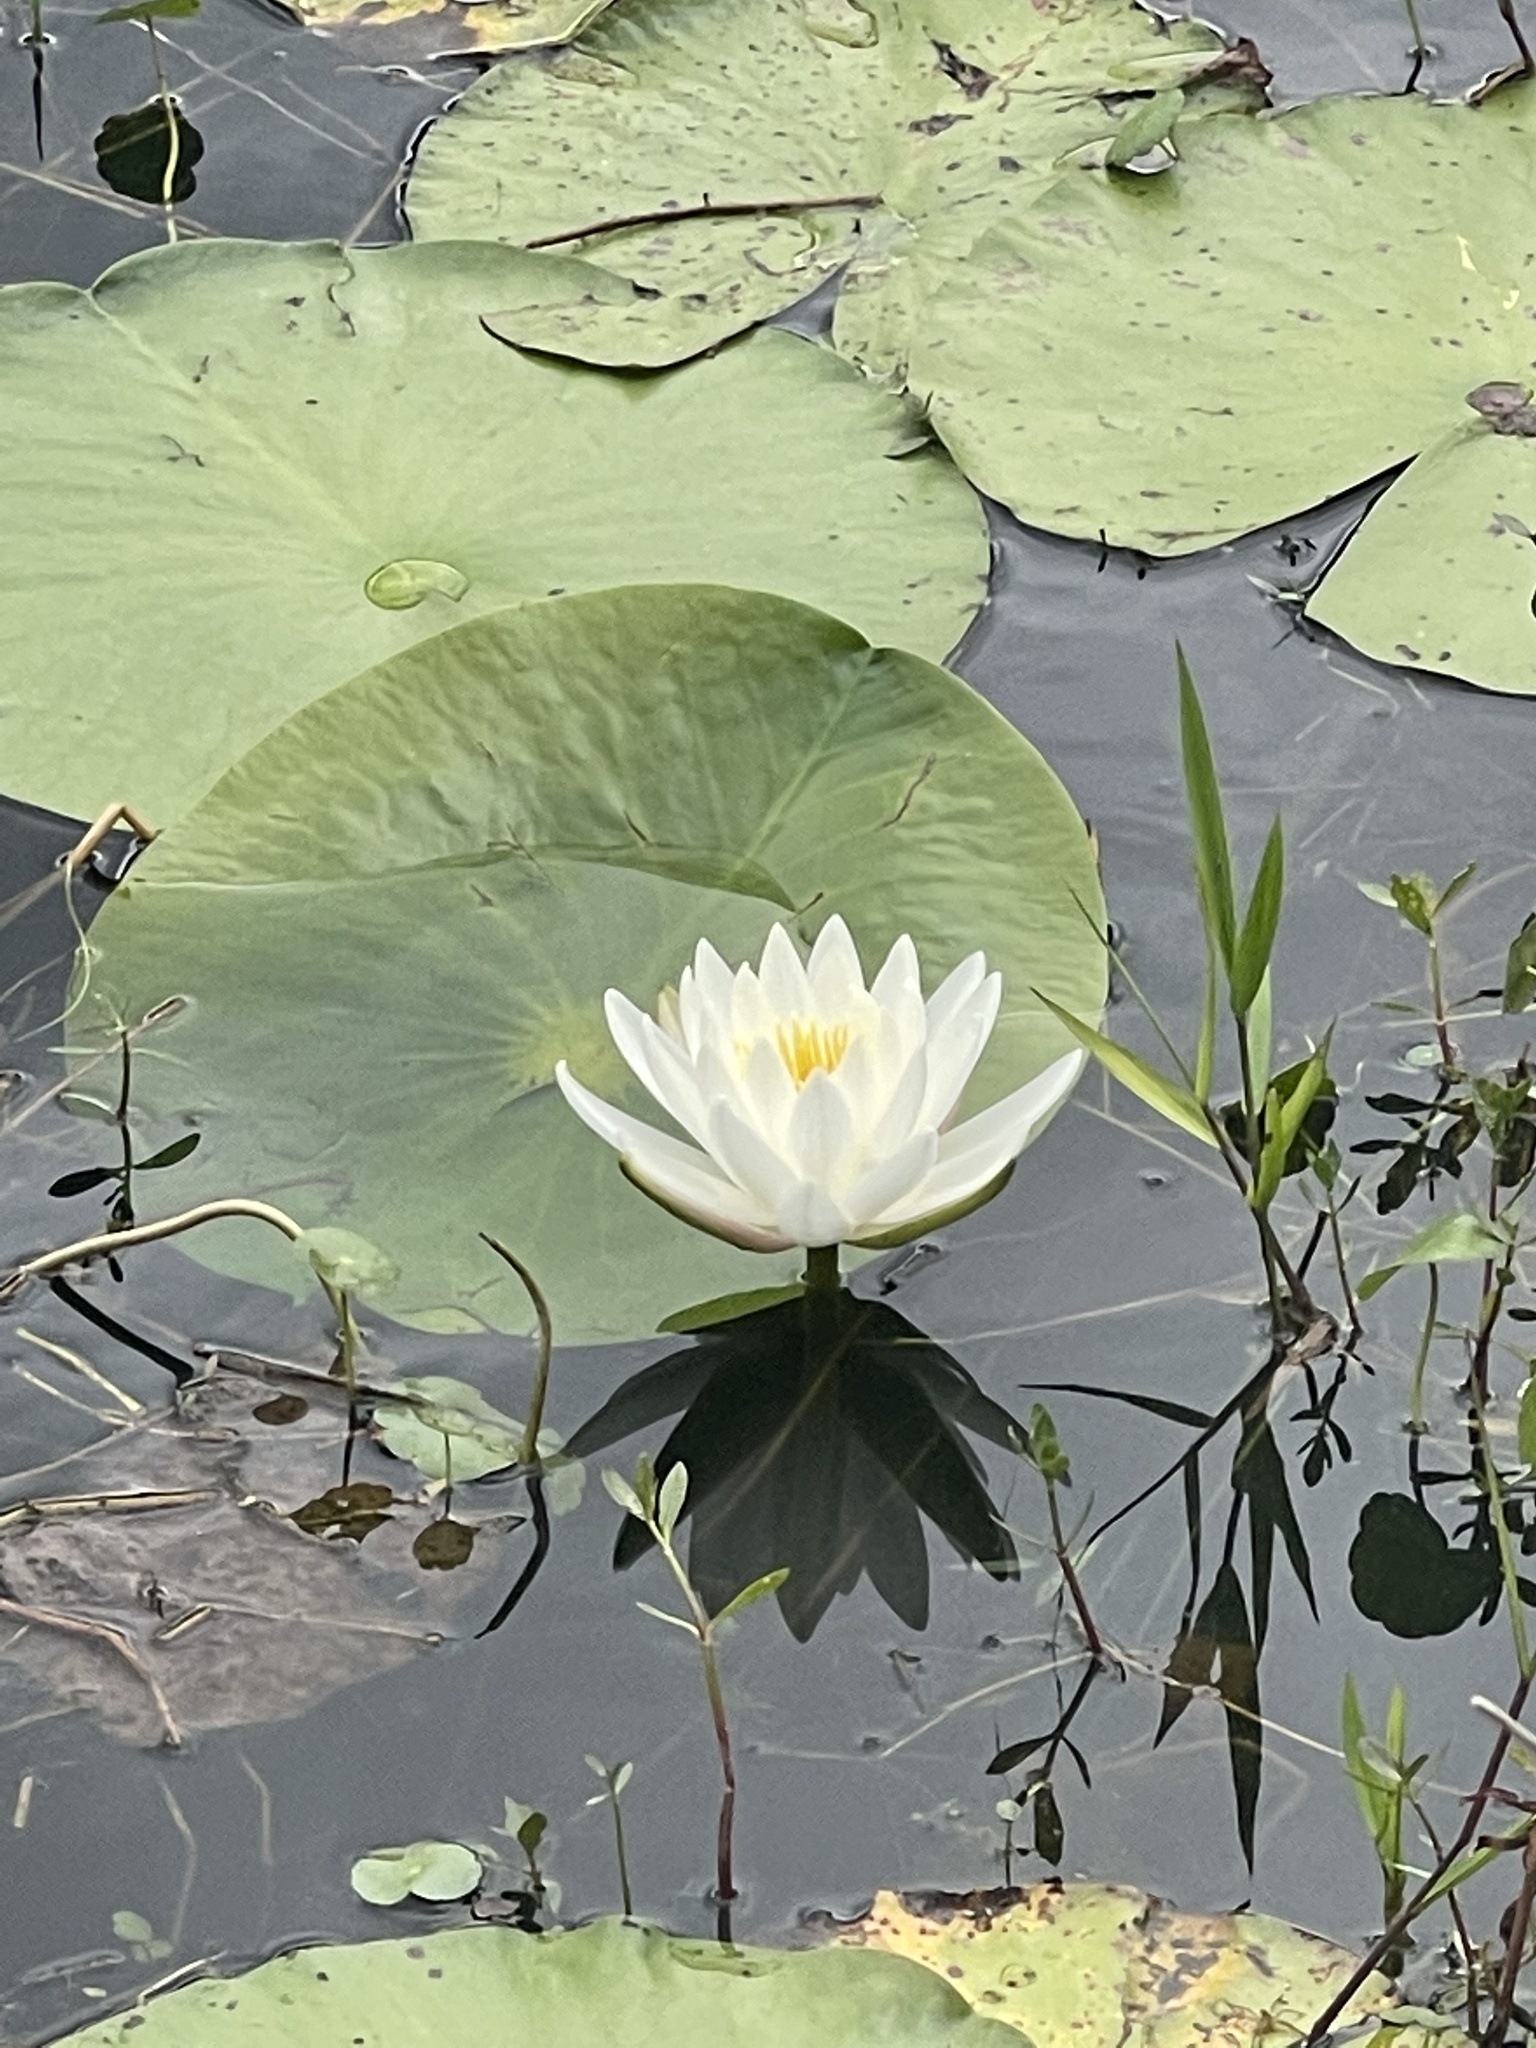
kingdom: Plantae
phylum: Tracheophyta
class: Magnoliopsida
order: Nymphaeales
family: Nymphaeaceae
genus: Nymphaea
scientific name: Nymphaea odorata
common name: Fragrant water-lily
